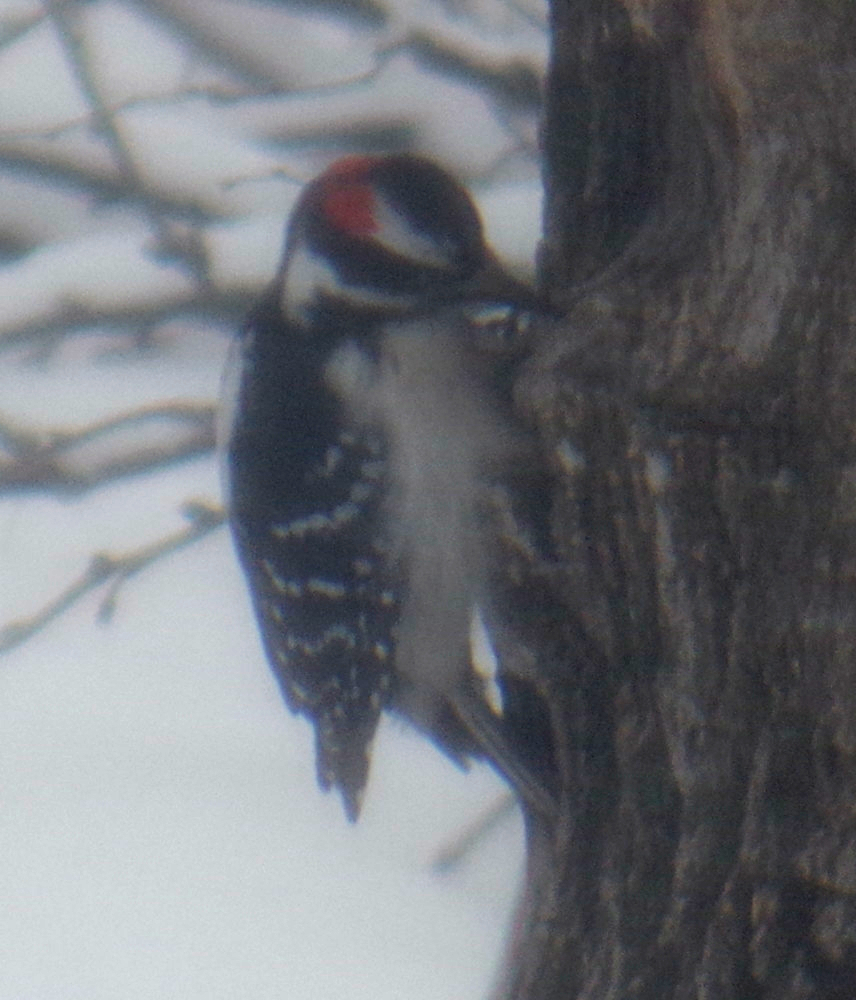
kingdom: Animalia
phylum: Chordata
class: Aves
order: Piciformes
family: Picidae
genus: Leuconotopicus
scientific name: Leuconotopicus villosus
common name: Hairy woodpecker
